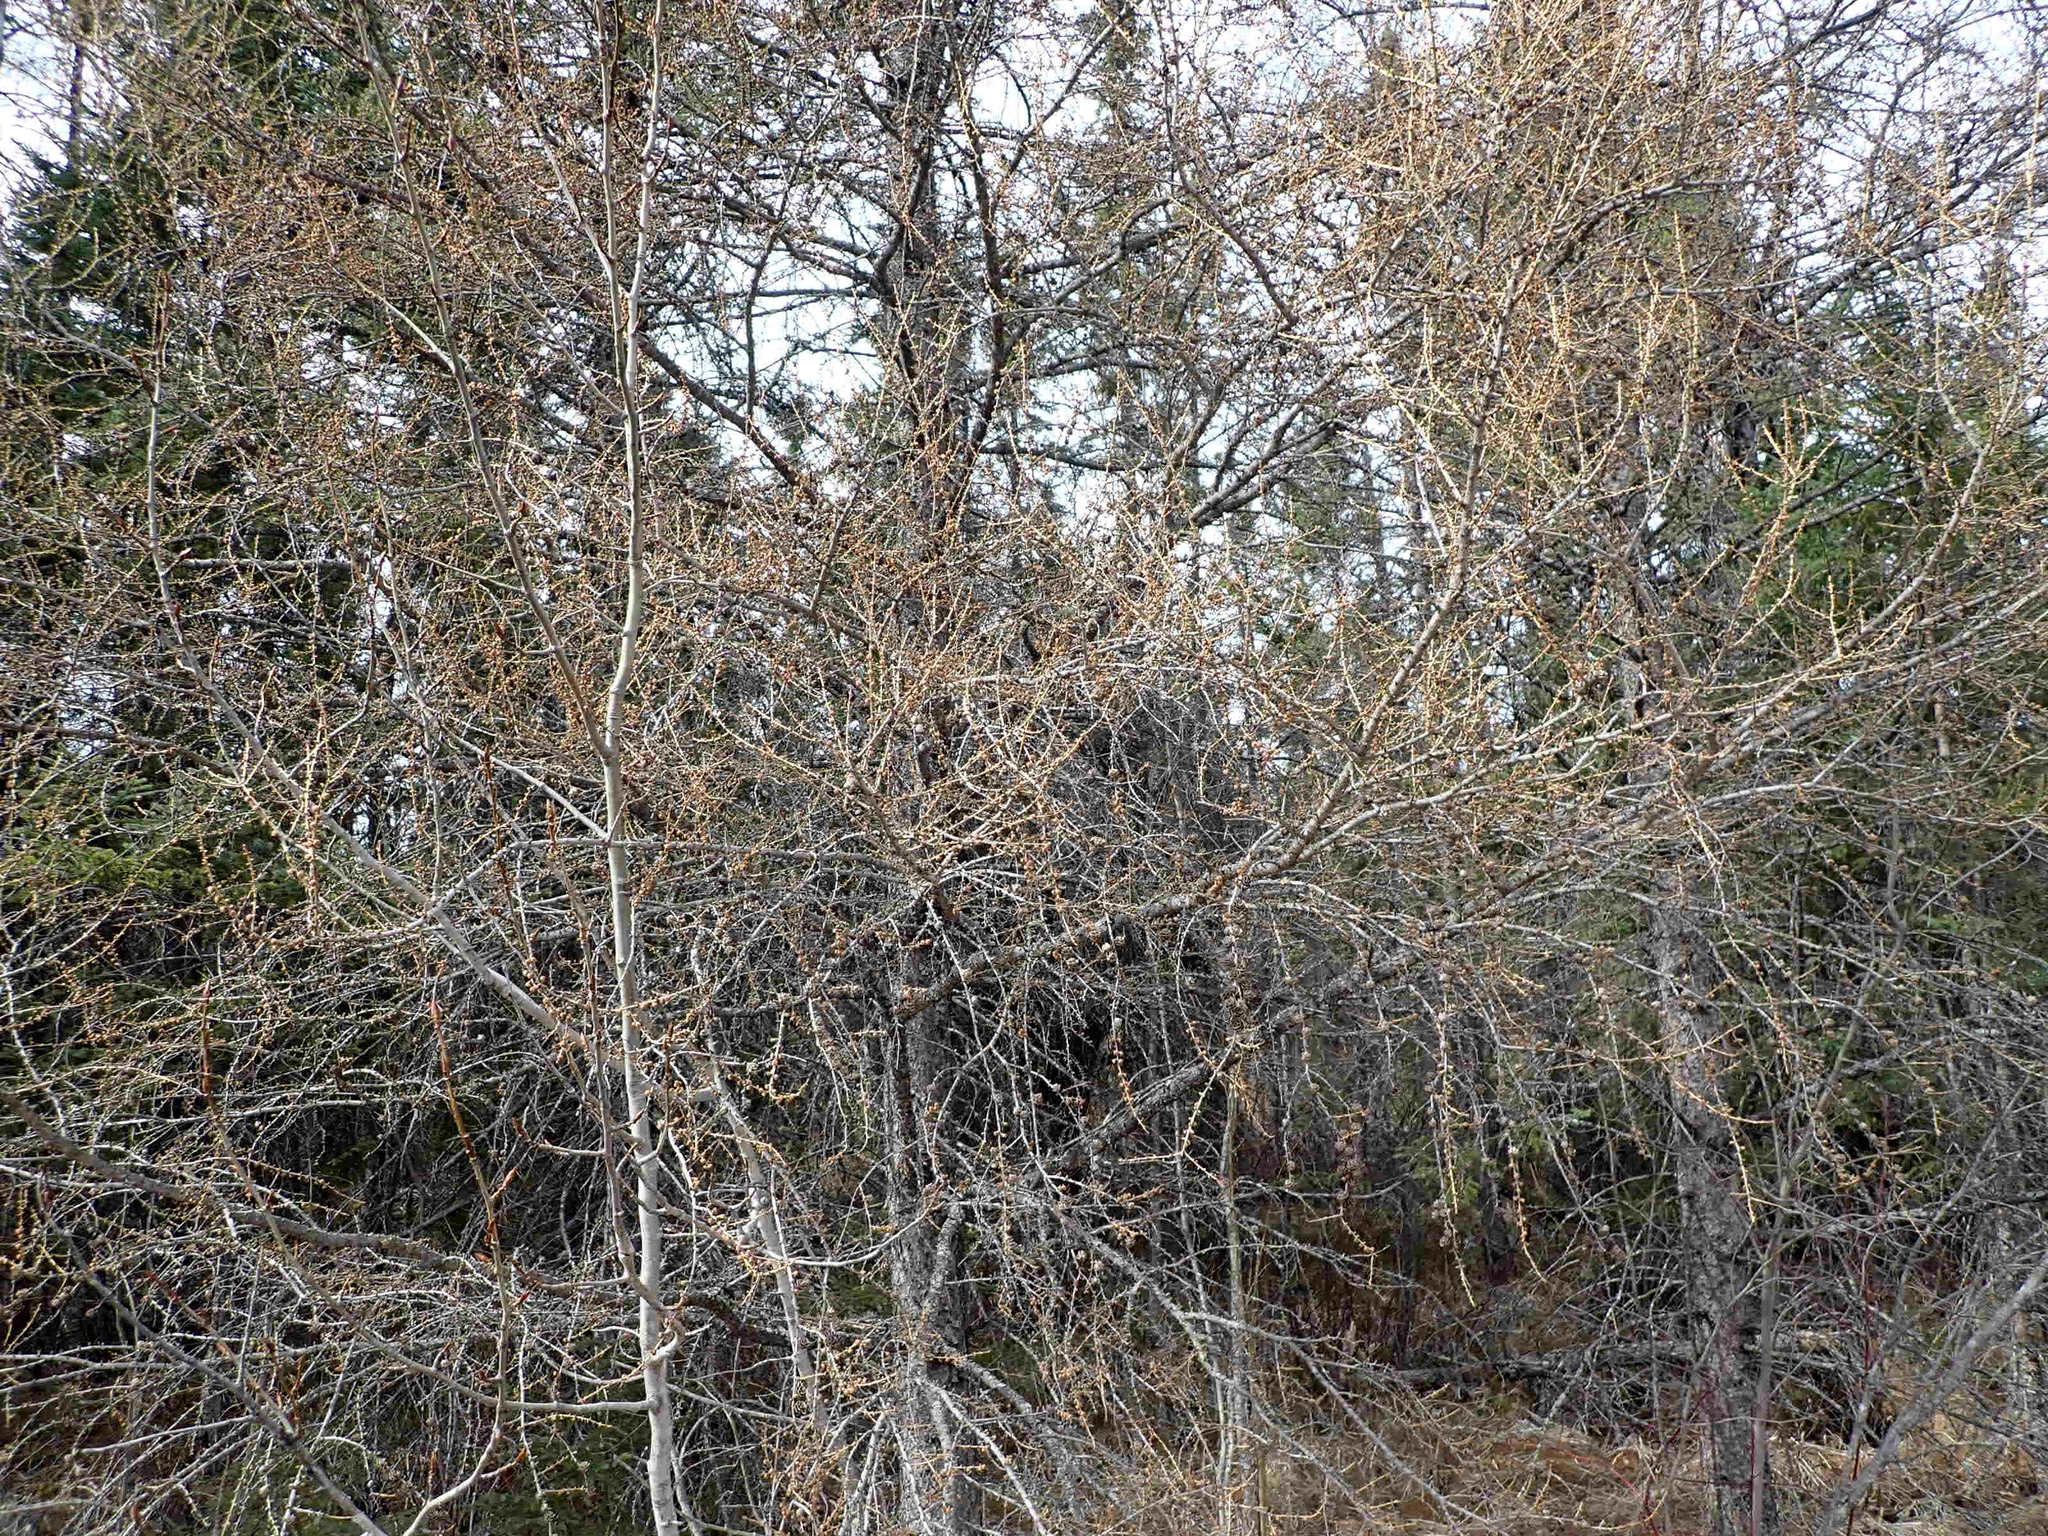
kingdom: Plantae
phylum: Tracheophyta
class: Pinopsida
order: Pinales
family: Pinaceae
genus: Larix
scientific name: Larix laricina
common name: American larch
